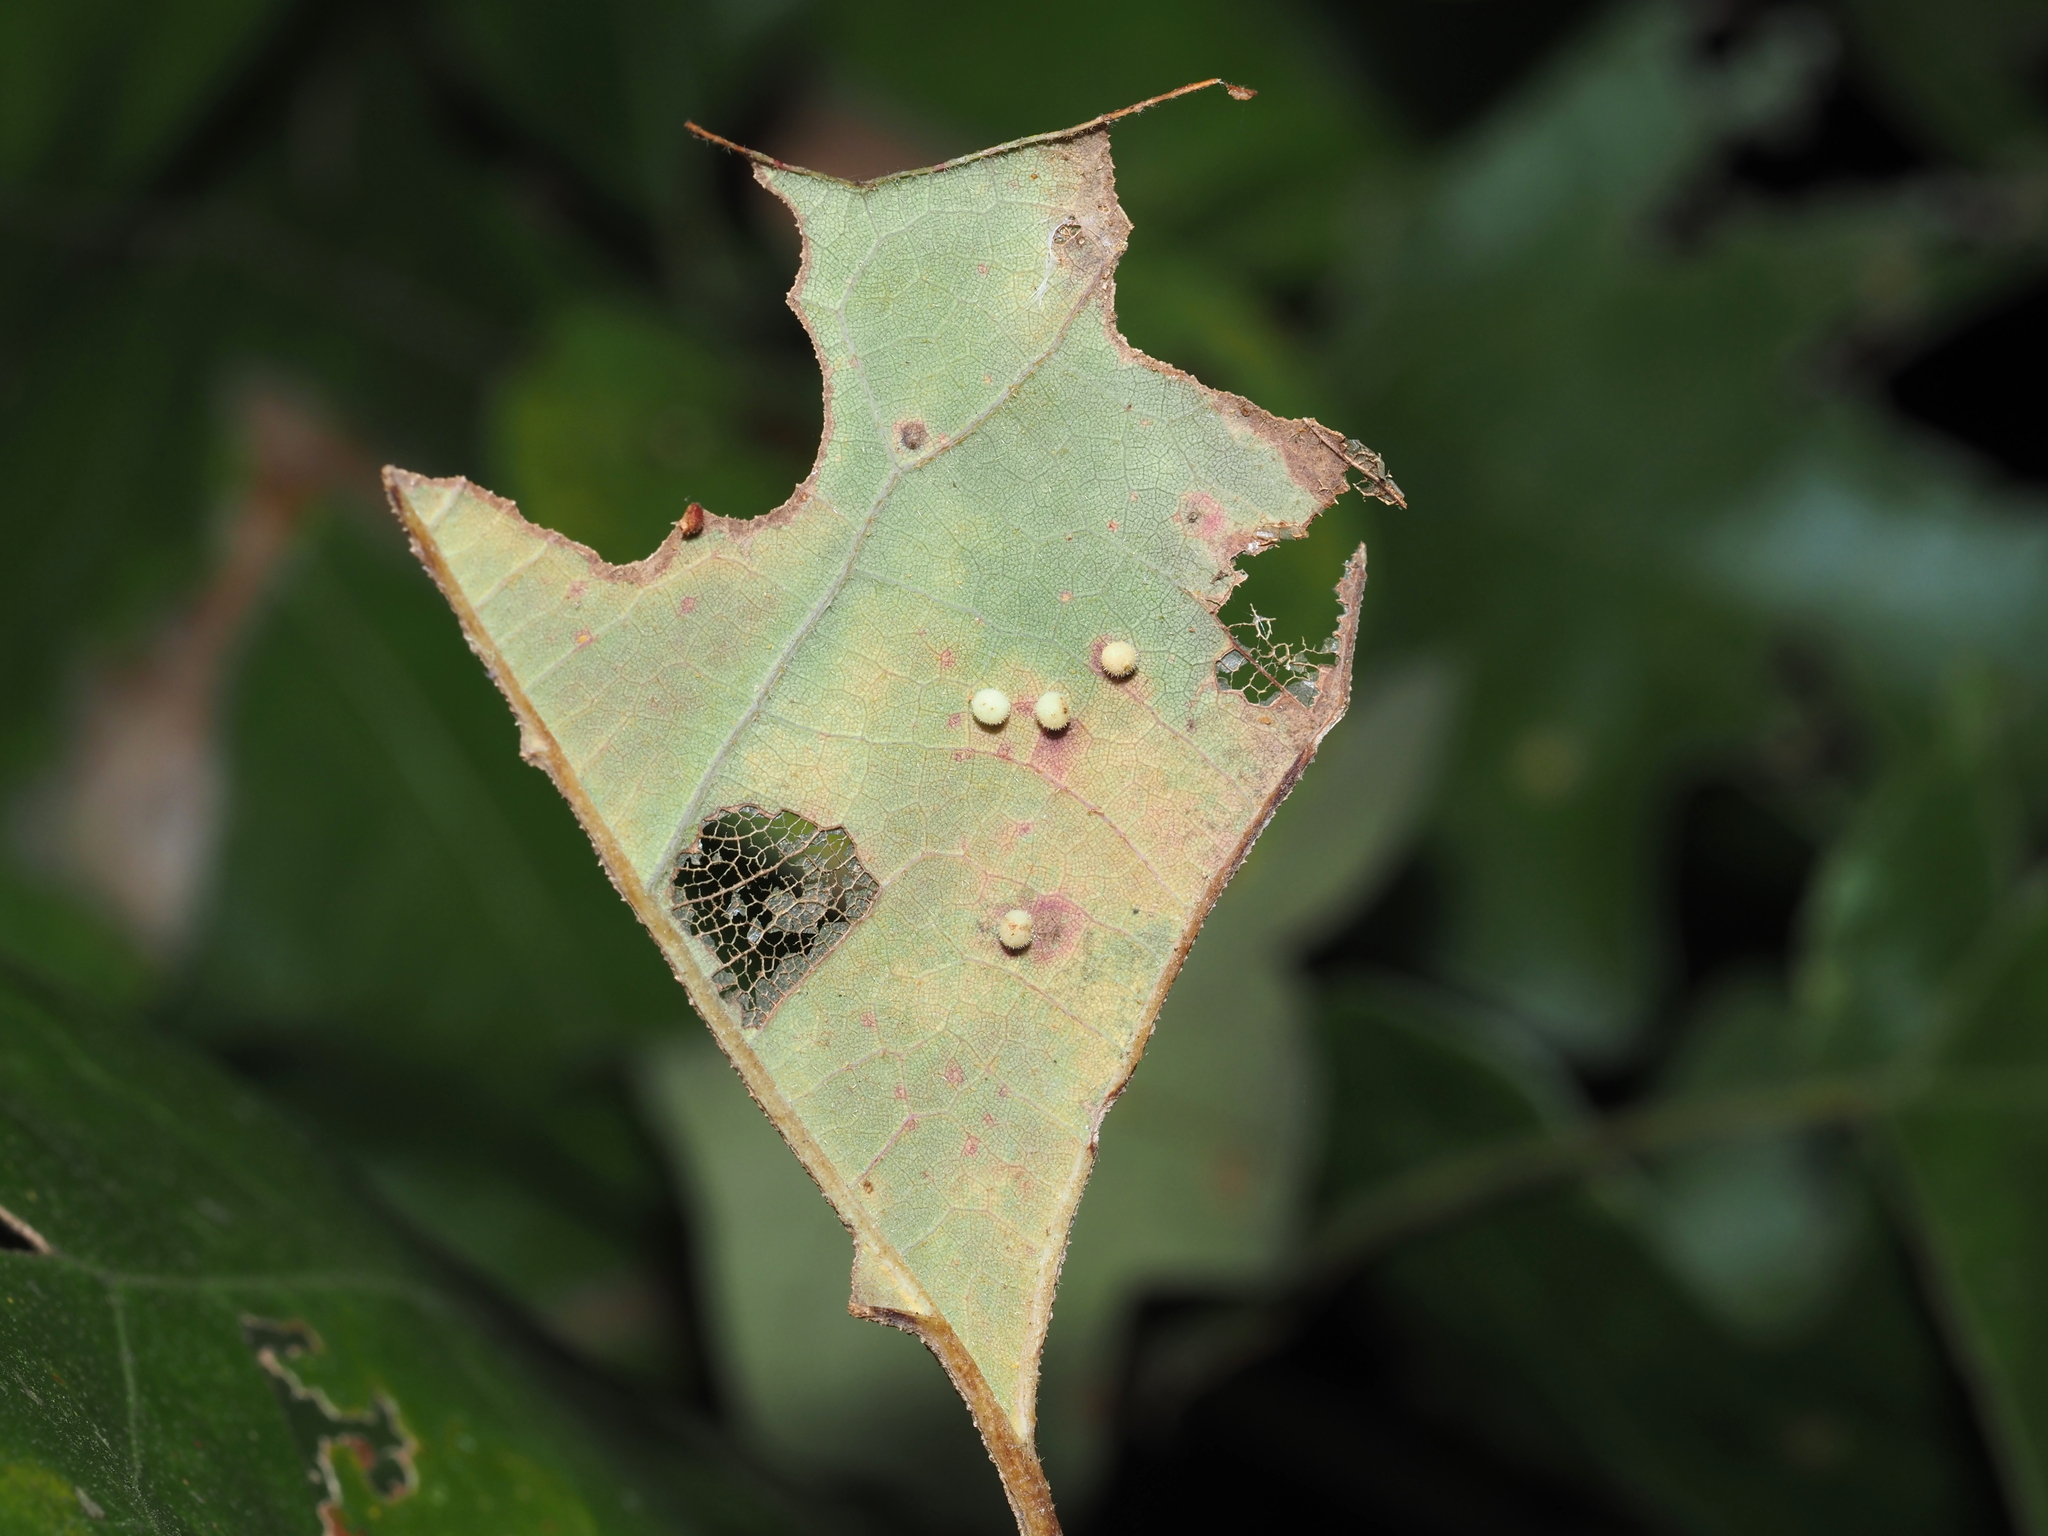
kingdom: Animalia
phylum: Arthropoda
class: Insecta
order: Hymenoptera
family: Cynipidae
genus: Neuroterus
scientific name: Neuroterus saltarius
